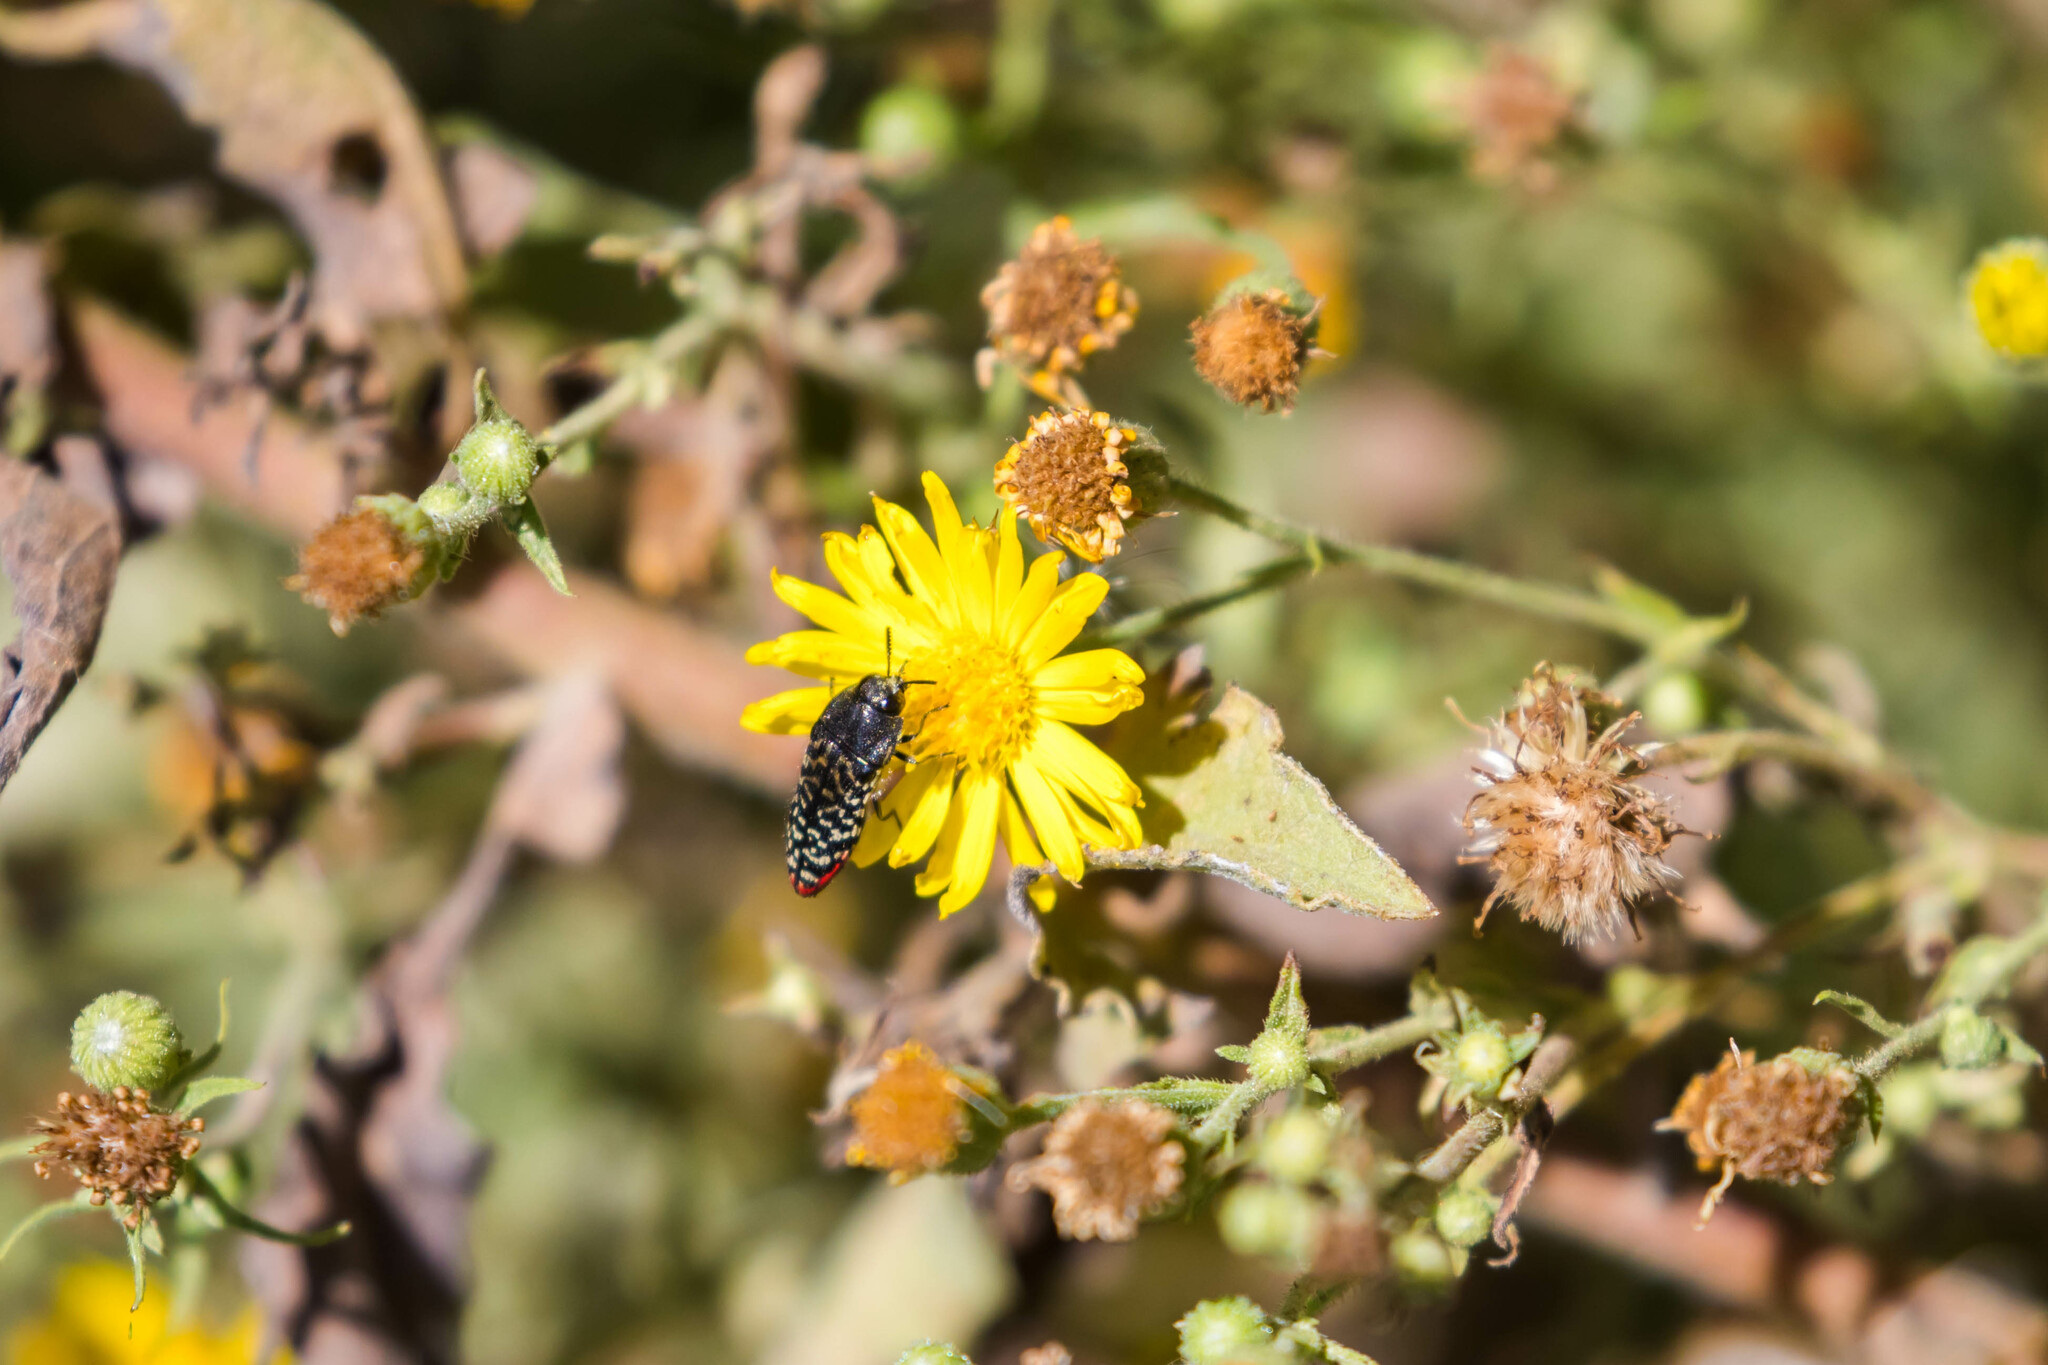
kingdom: Animalia
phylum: Arthropoda
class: Insecta
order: Coleoptera
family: Buprestidae
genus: Acmaeodera
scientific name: Acmaeodera haemorrhoa
